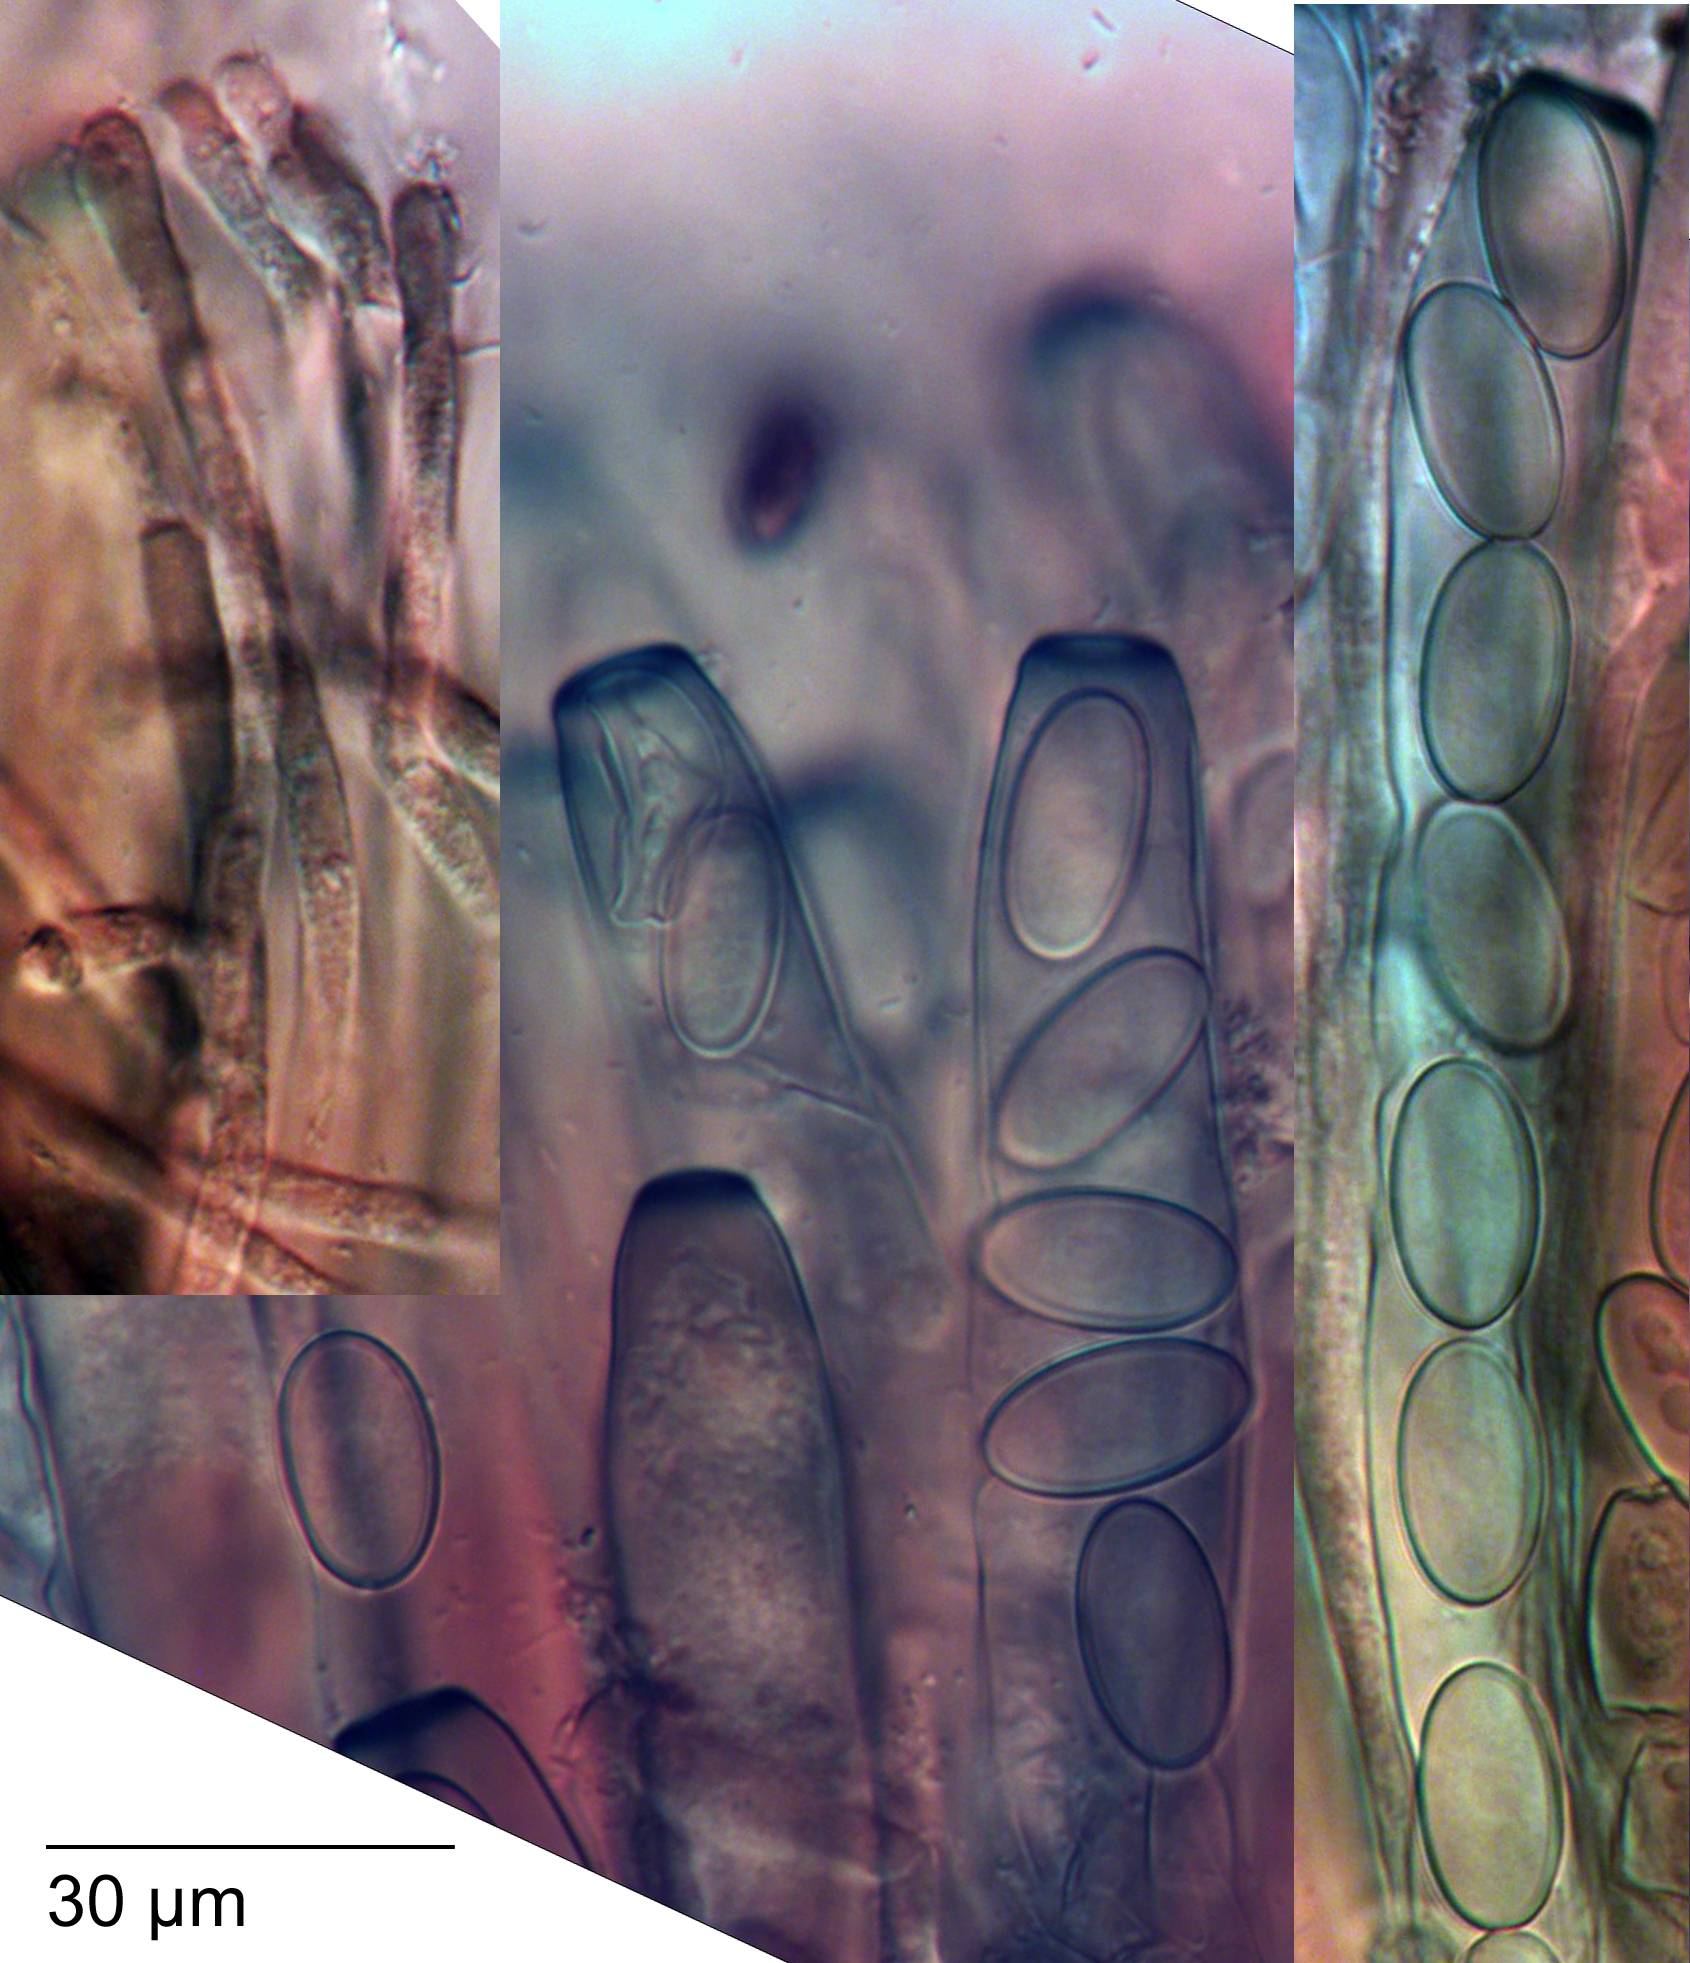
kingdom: Fungi
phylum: Ascomycota
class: Pezizomycetes
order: Pezizales
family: Pezizaceae
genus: Peziza
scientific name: Peziza fimeti
